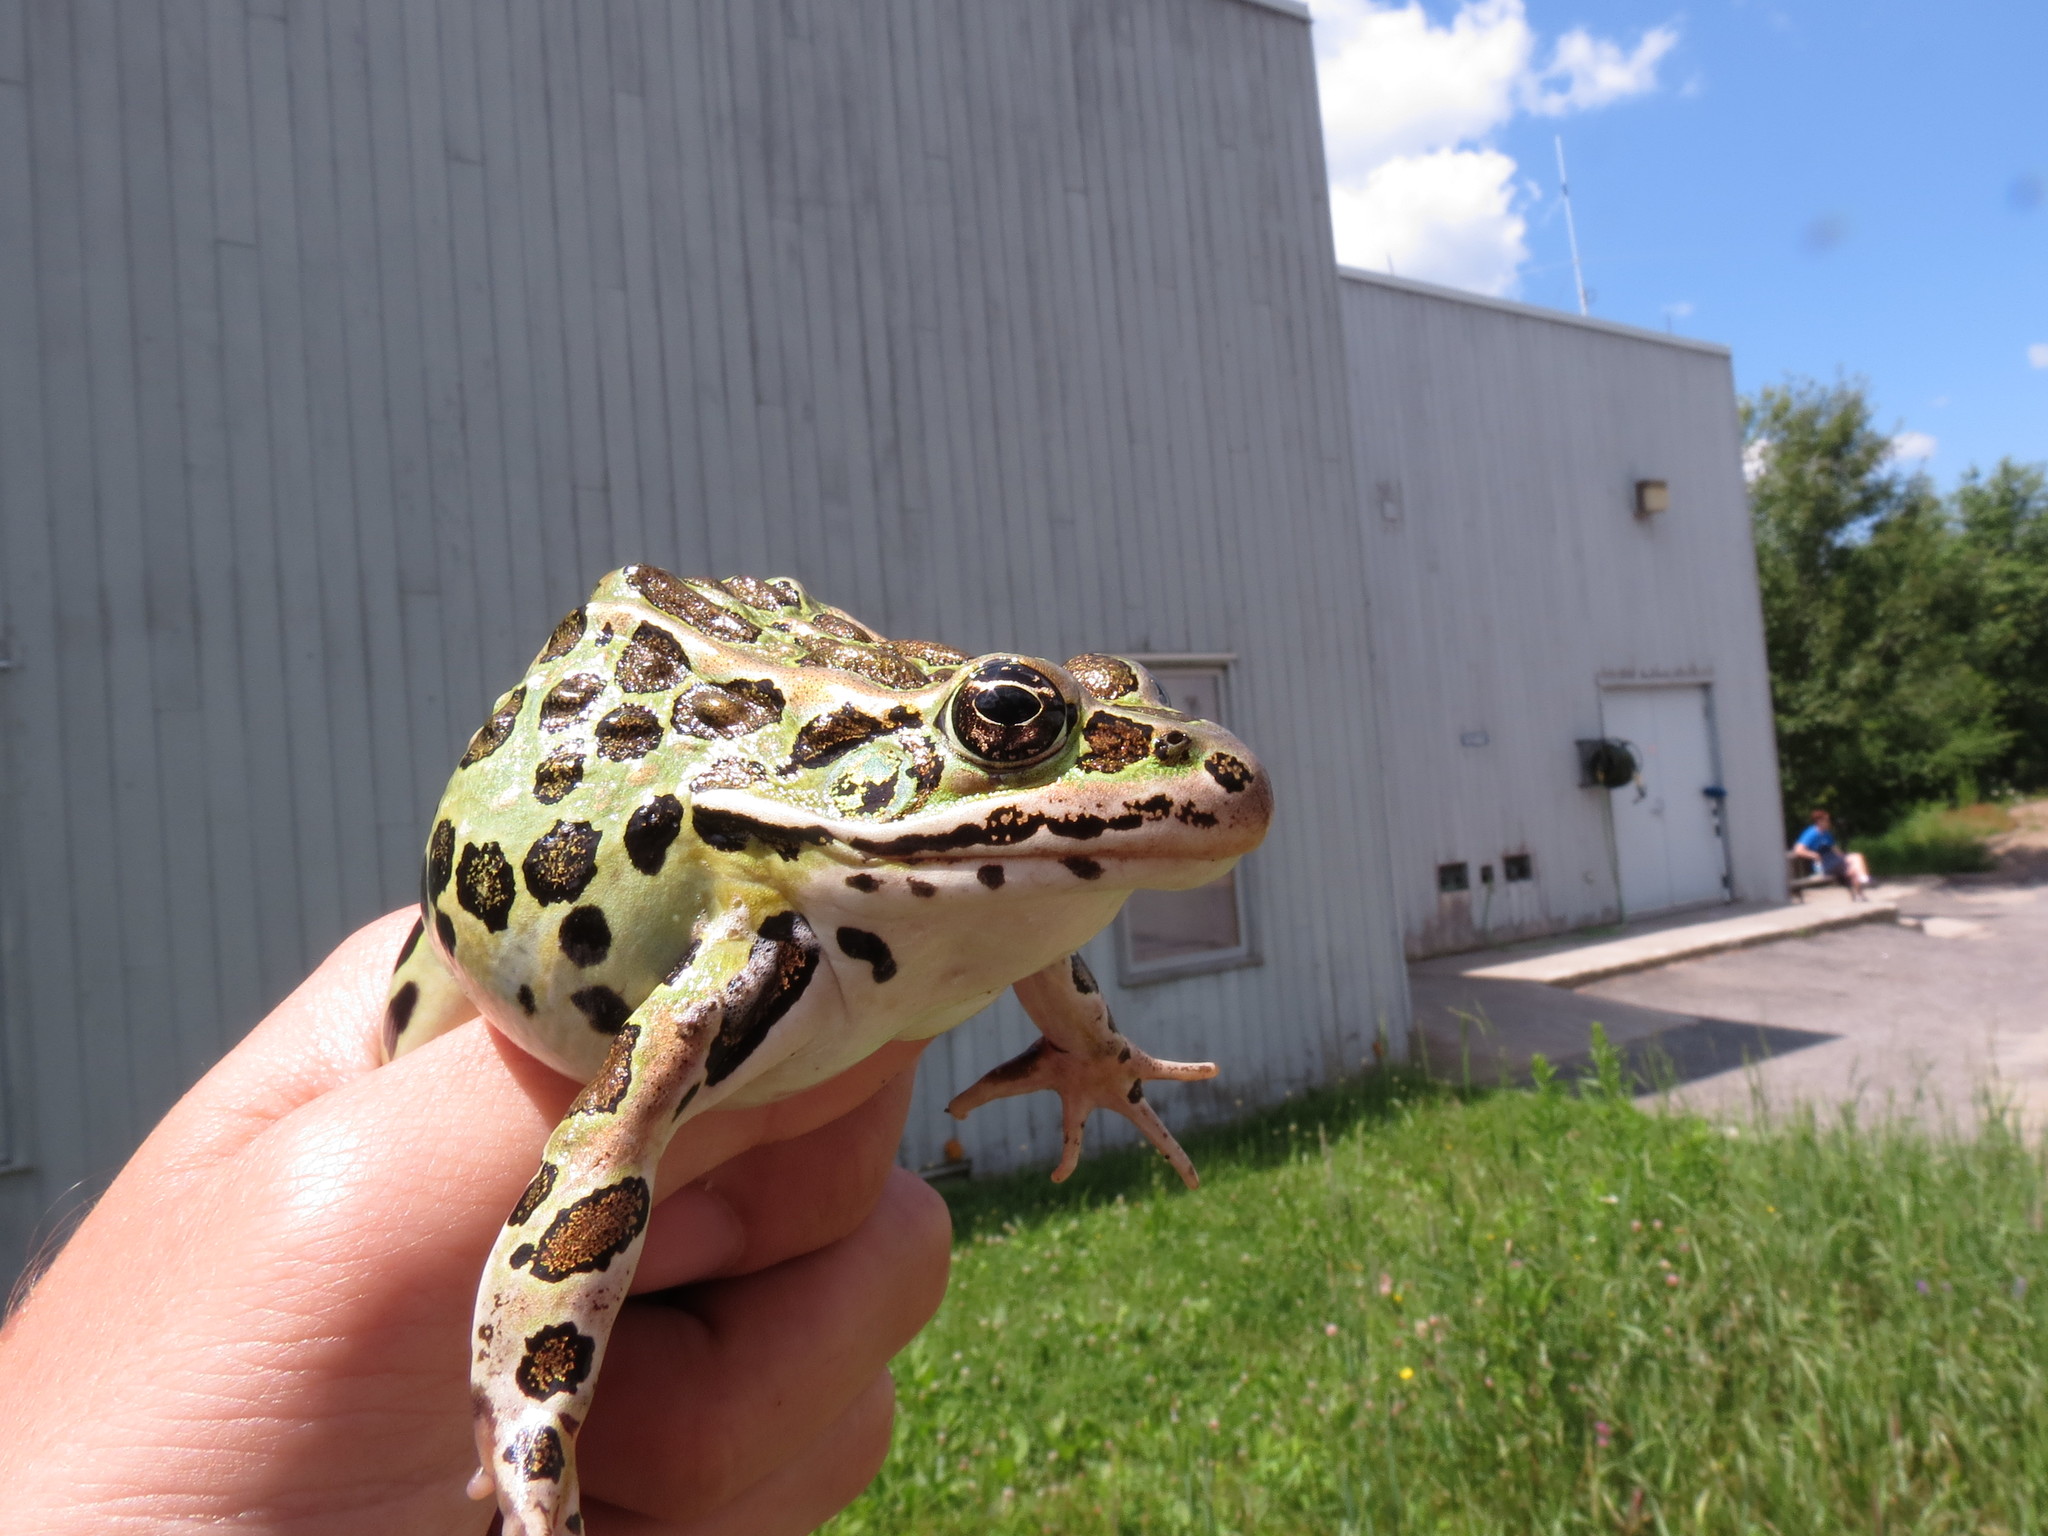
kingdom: Animalia
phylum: Chordata
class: Amphibia
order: Anura
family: Ranidae
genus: Lithobates
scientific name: Lithobates pipiens
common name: Northern leopard frog
